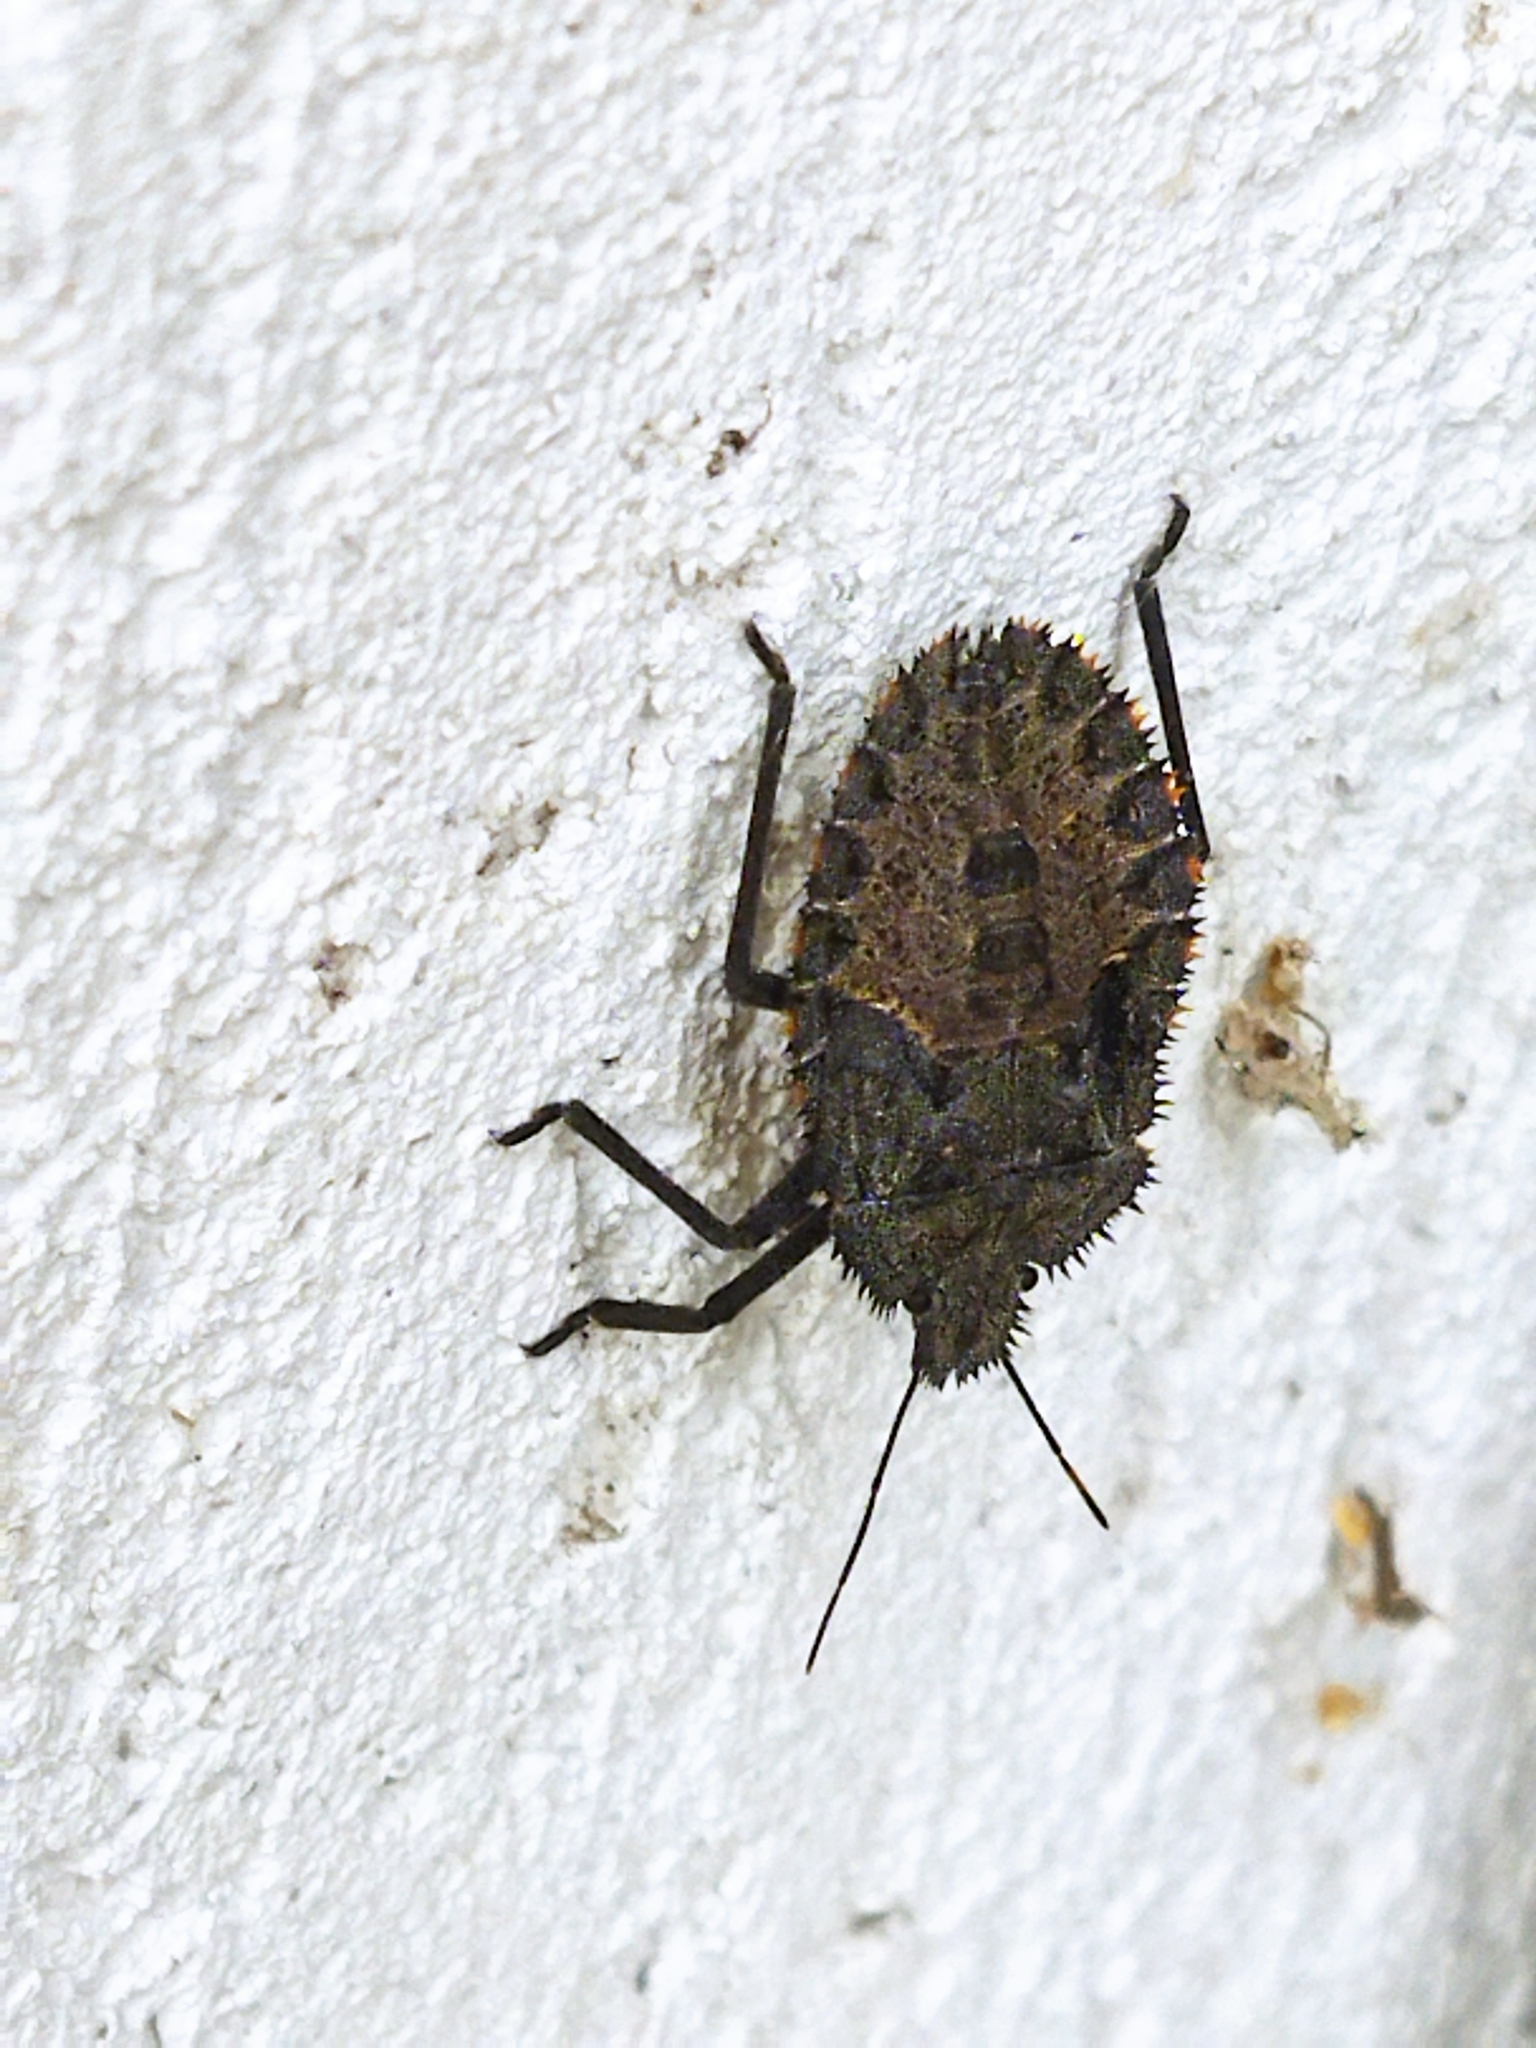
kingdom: Animalia
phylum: Arthropoda
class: Insecta
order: Hemiptera
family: Pentatomidae
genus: Mustha
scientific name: Mustha spinosula
